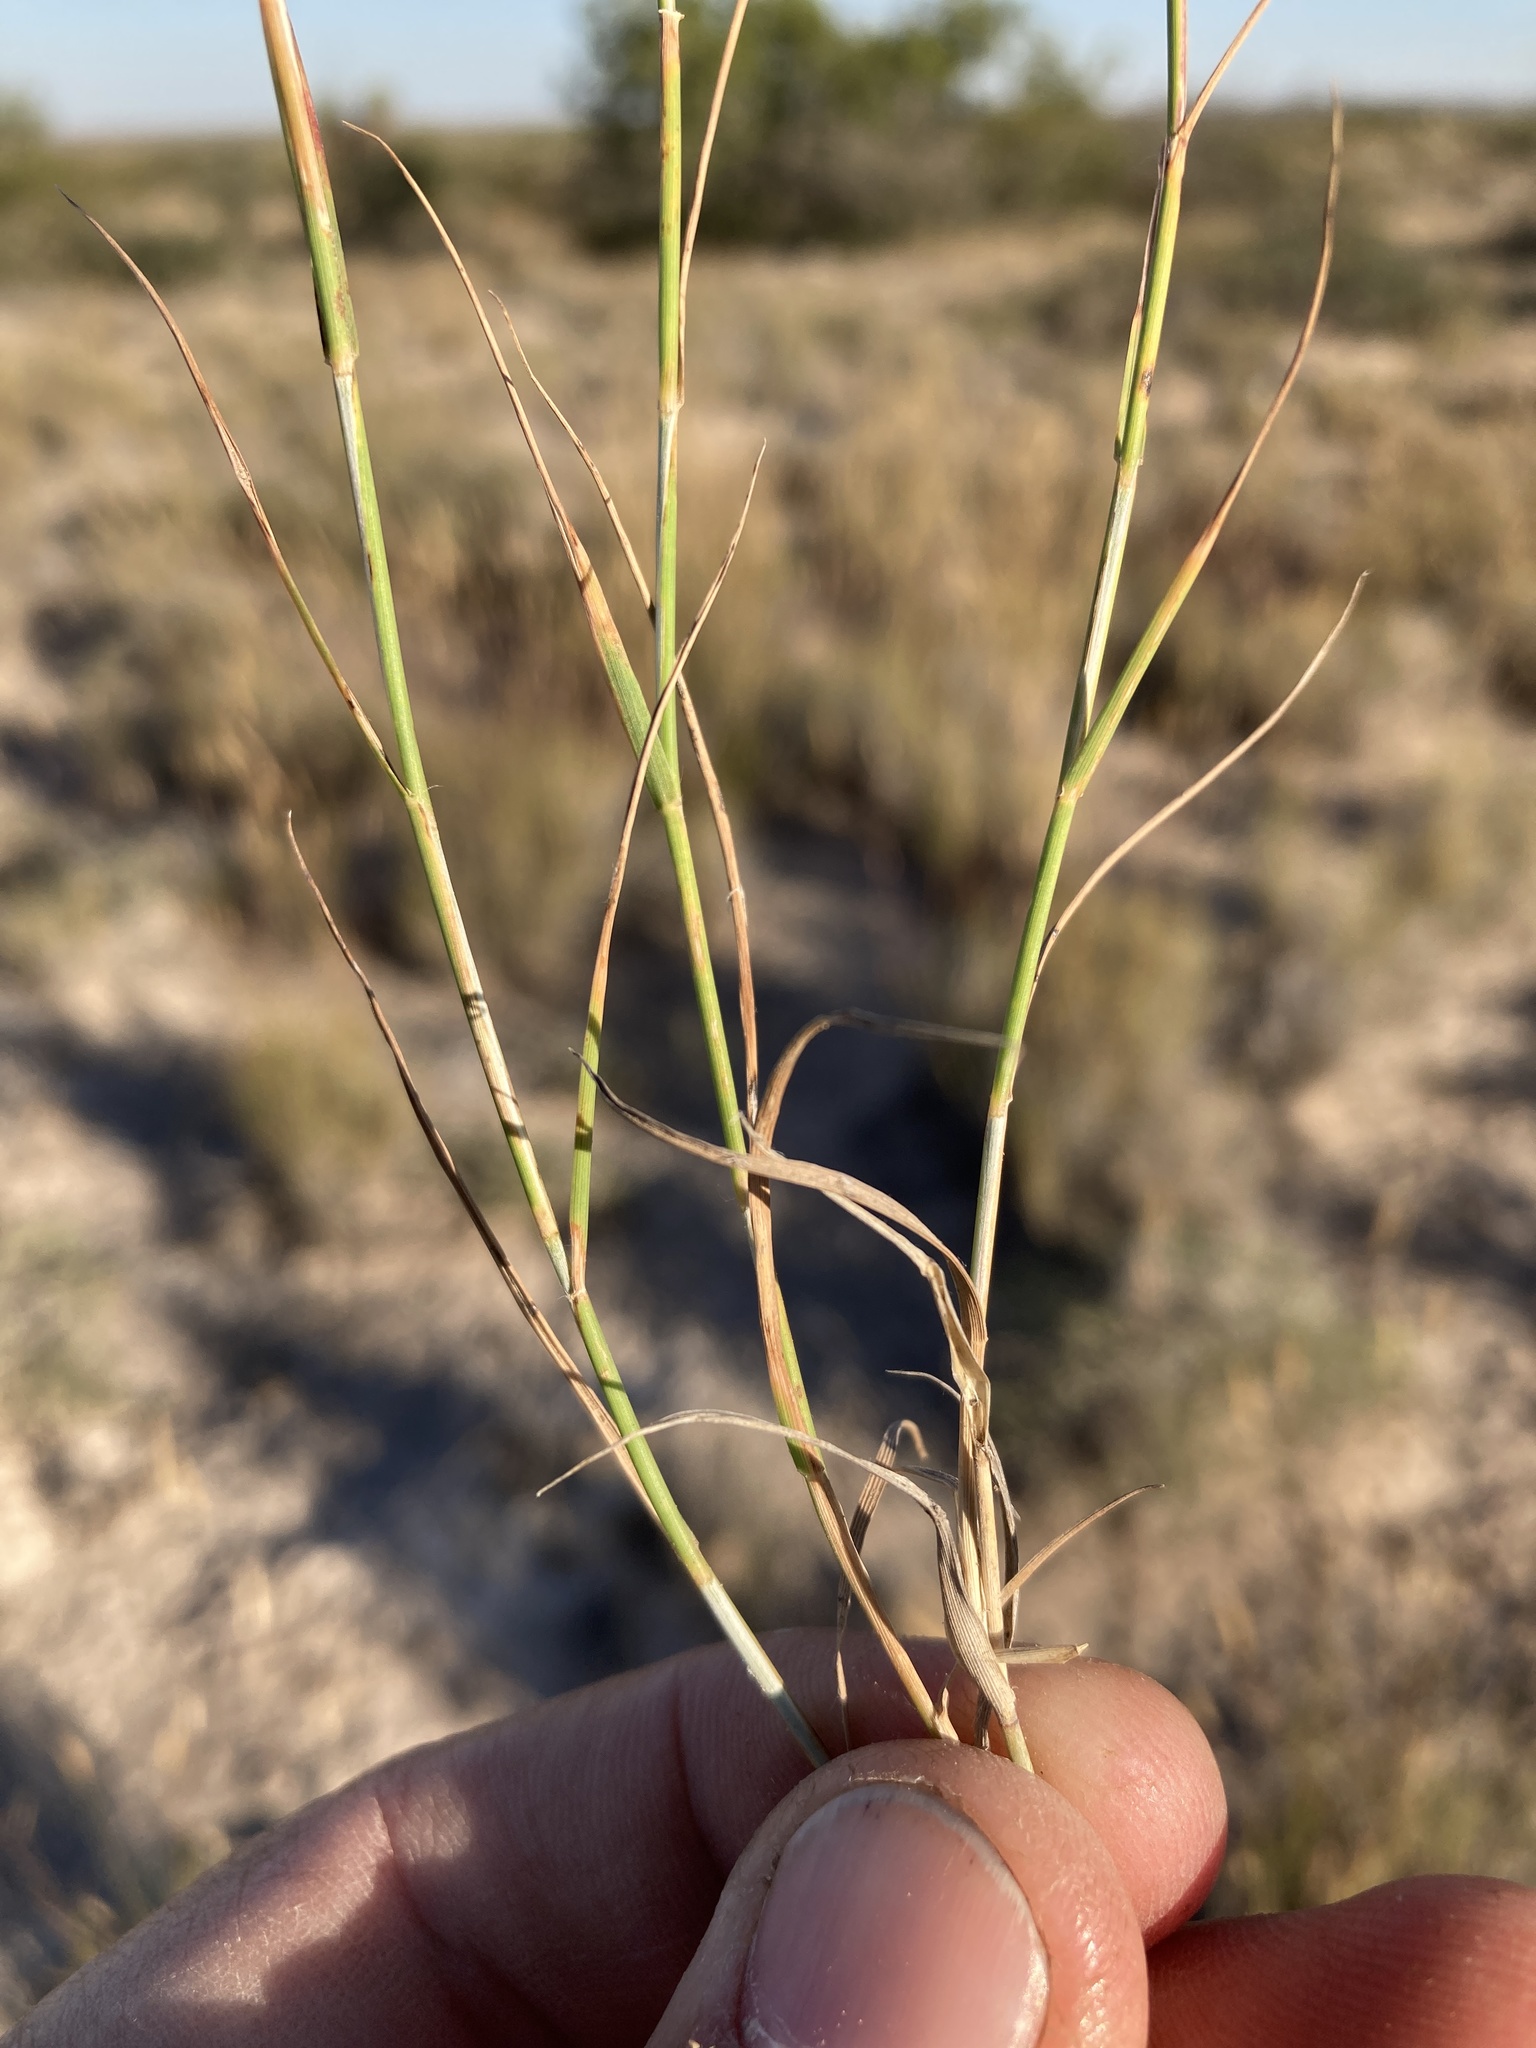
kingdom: Plantae
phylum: Tracheophyta
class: Liliopsida
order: Poales
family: Poaceae
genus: Bouteloua
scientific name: Bouteloua breviseta
